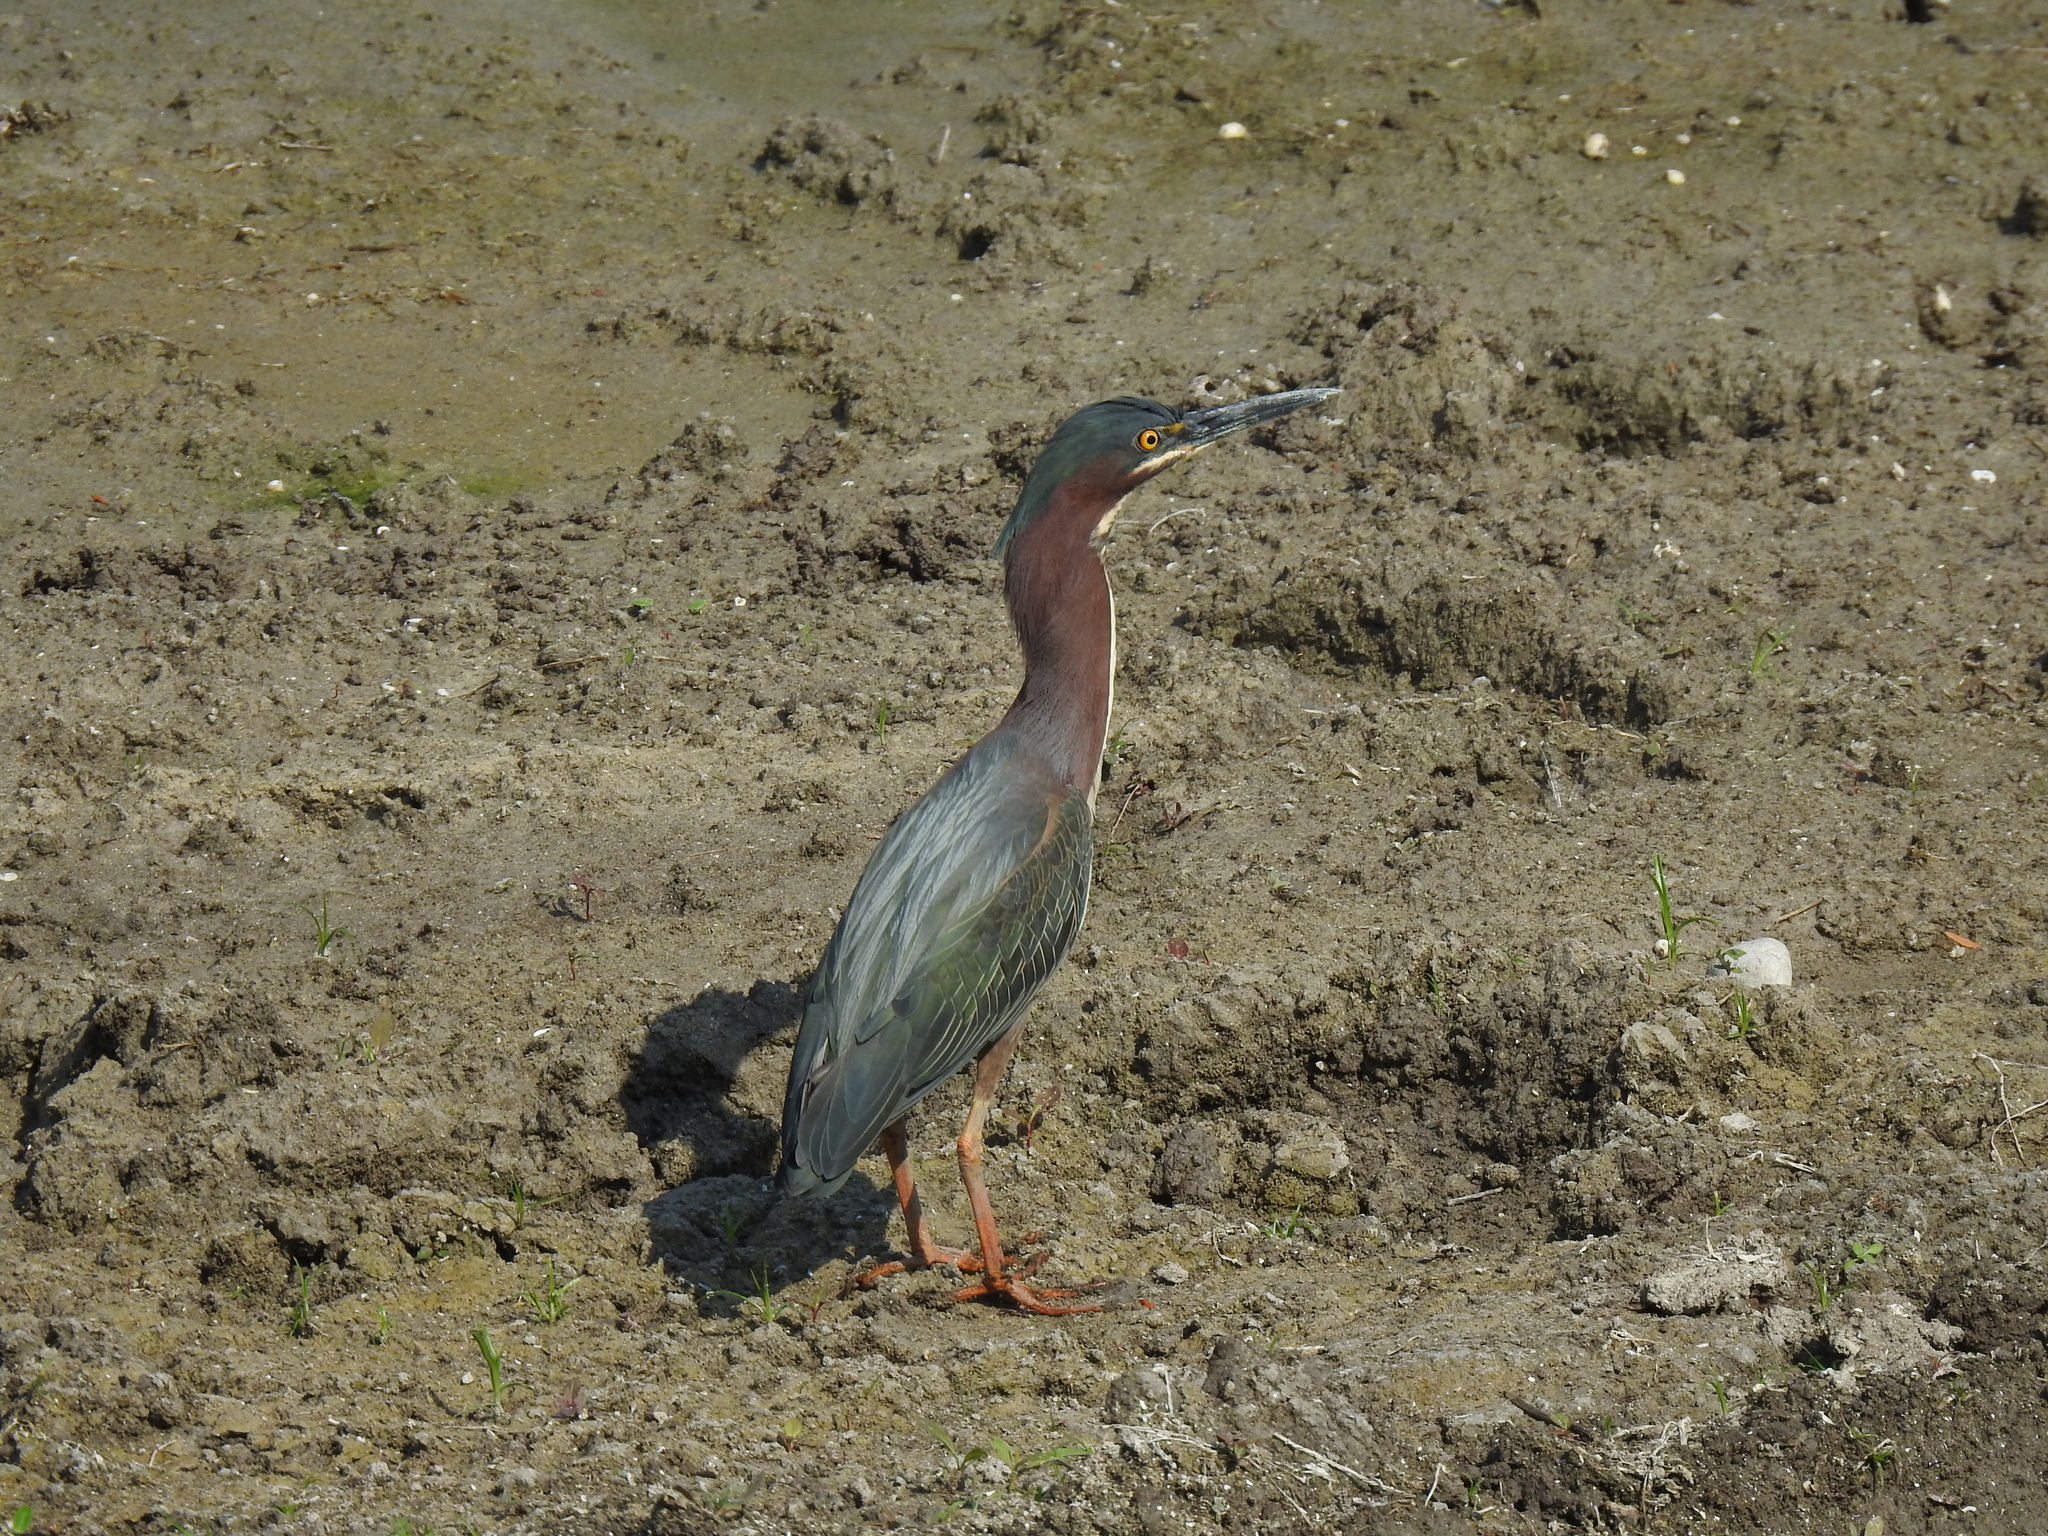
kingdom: Animalia
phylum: Chordata
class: Aves
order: Pelecaniformes
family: Ardeidae
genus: Butorides
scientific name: Butorides virescens
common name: Green heron
